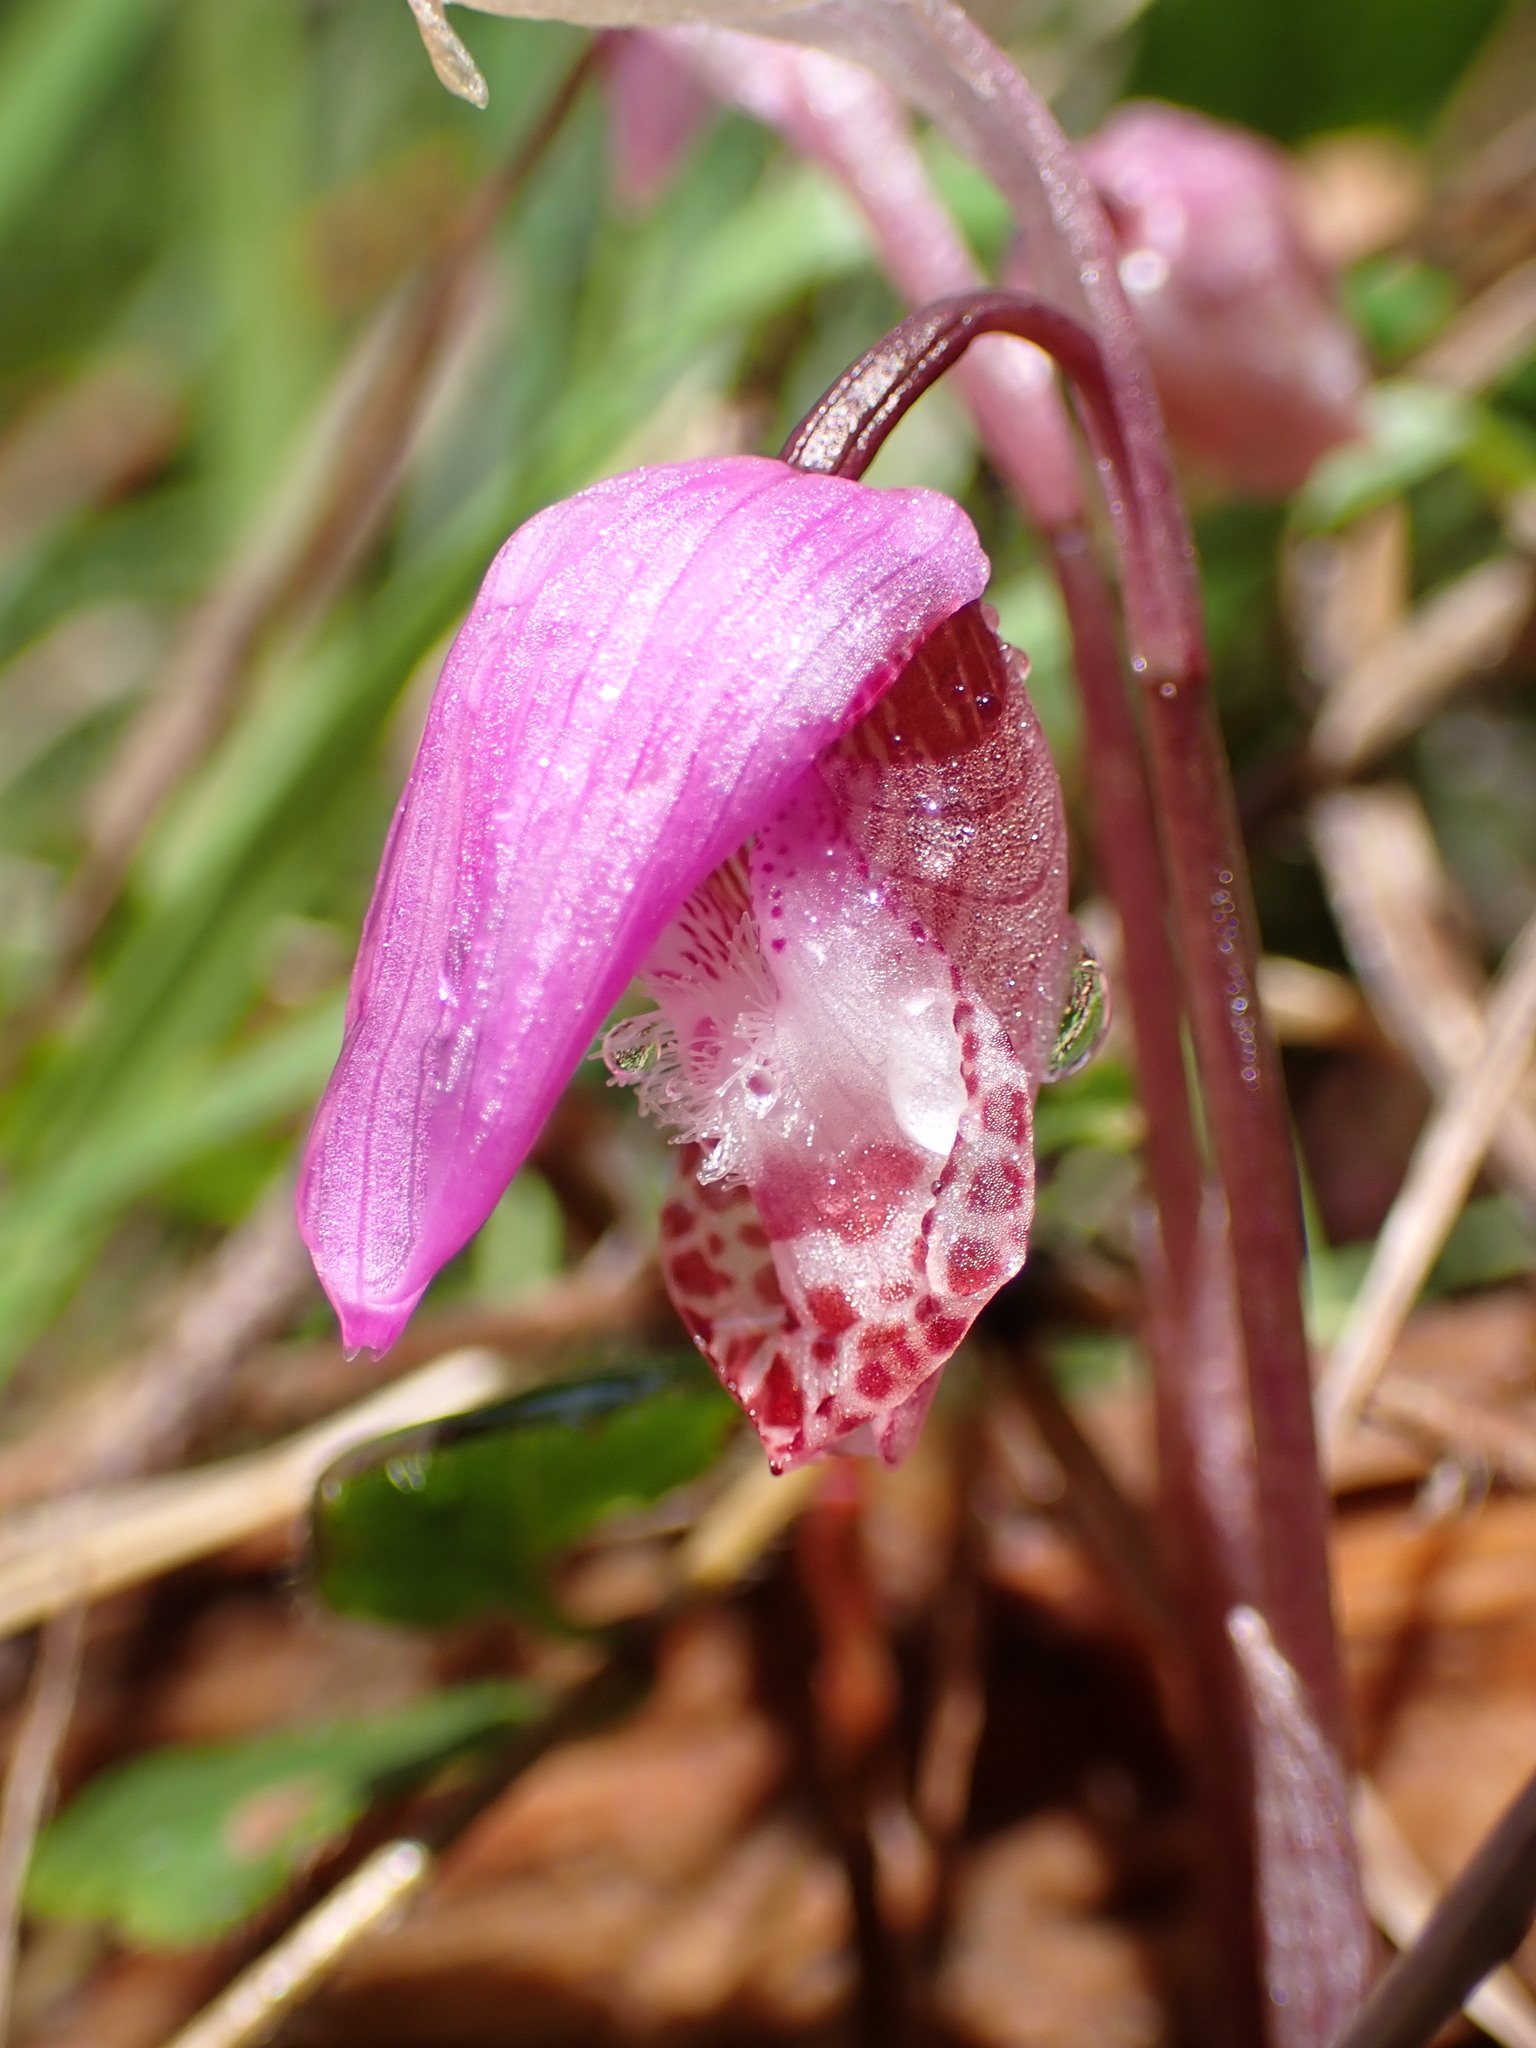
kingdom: Plantae
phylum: Tracheophyta
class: Liliopsida
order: Asparagales
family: Orchidaceae
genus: Calypso
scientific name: Calypso bulbosa
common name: Calypso
